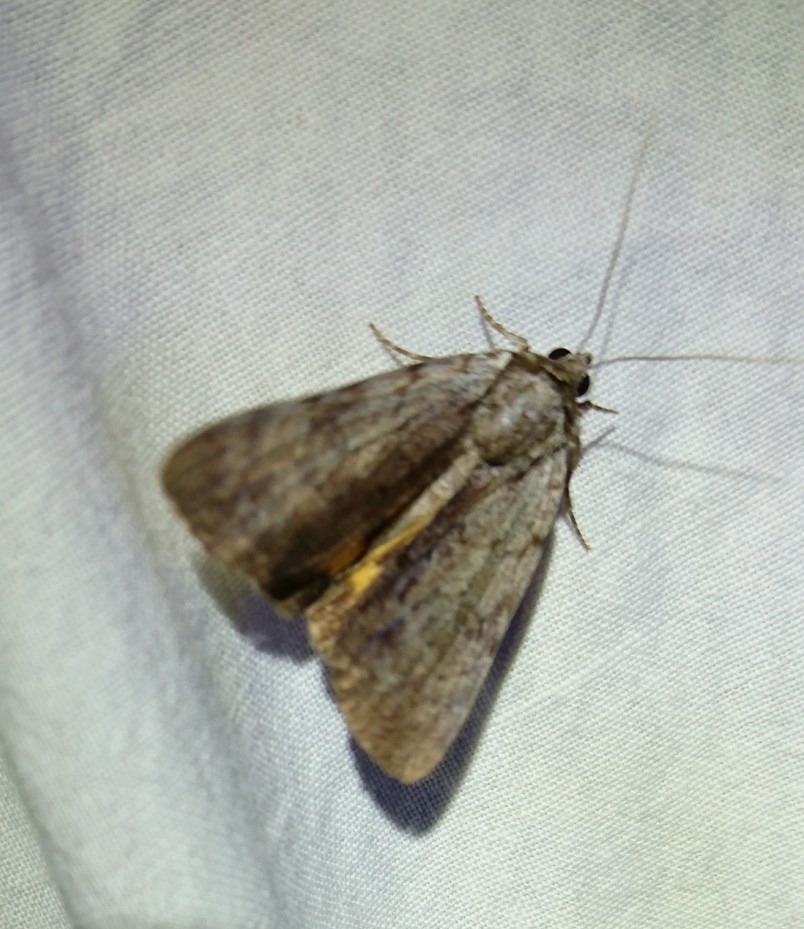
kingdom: Animalia
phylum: Arthropoda
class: Insecta
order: Lepidoptera
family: Erebidae
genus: Catocala
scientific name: Catocala gracilis
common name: Graceful underwing
